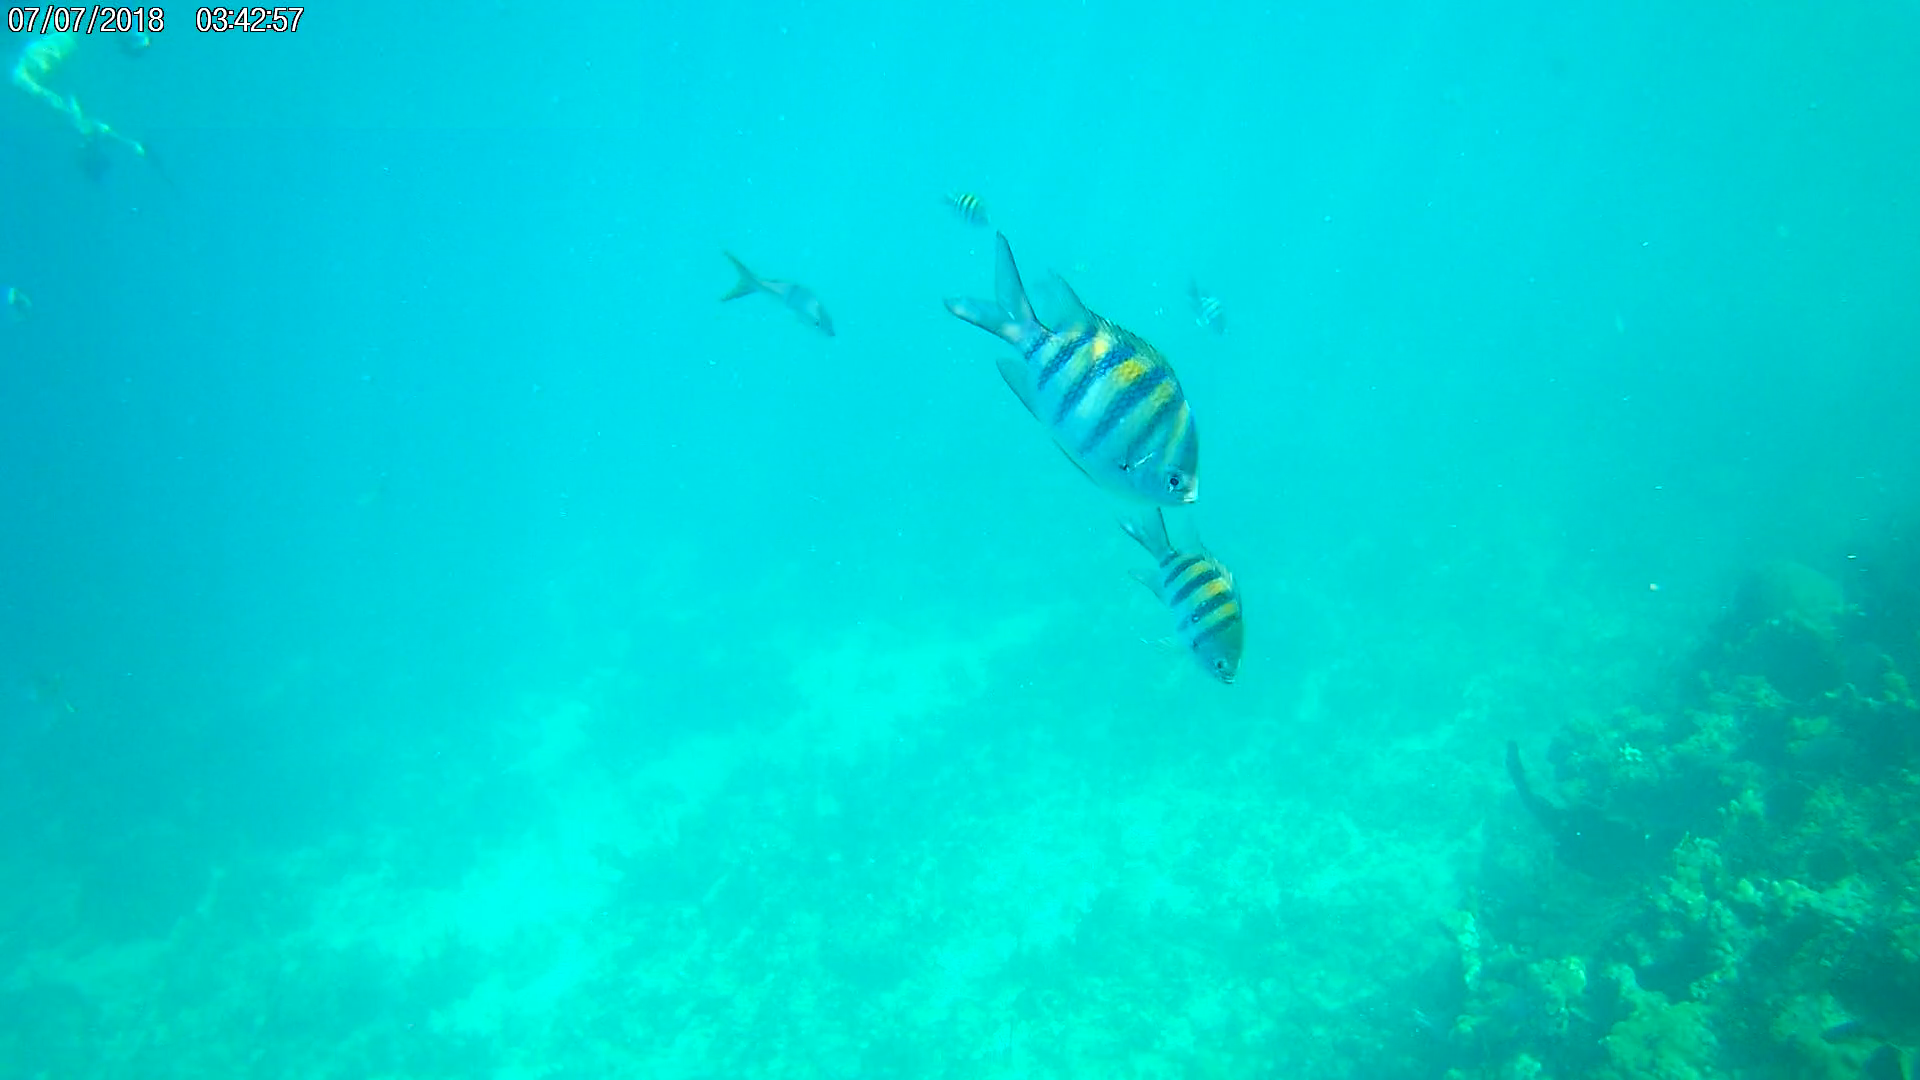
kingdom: Animalia
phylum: Chordata
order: Perciformes
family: Pomacentridae
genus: Abudefduf
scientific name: Abudefduf saxatilis
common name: Sergeant major
